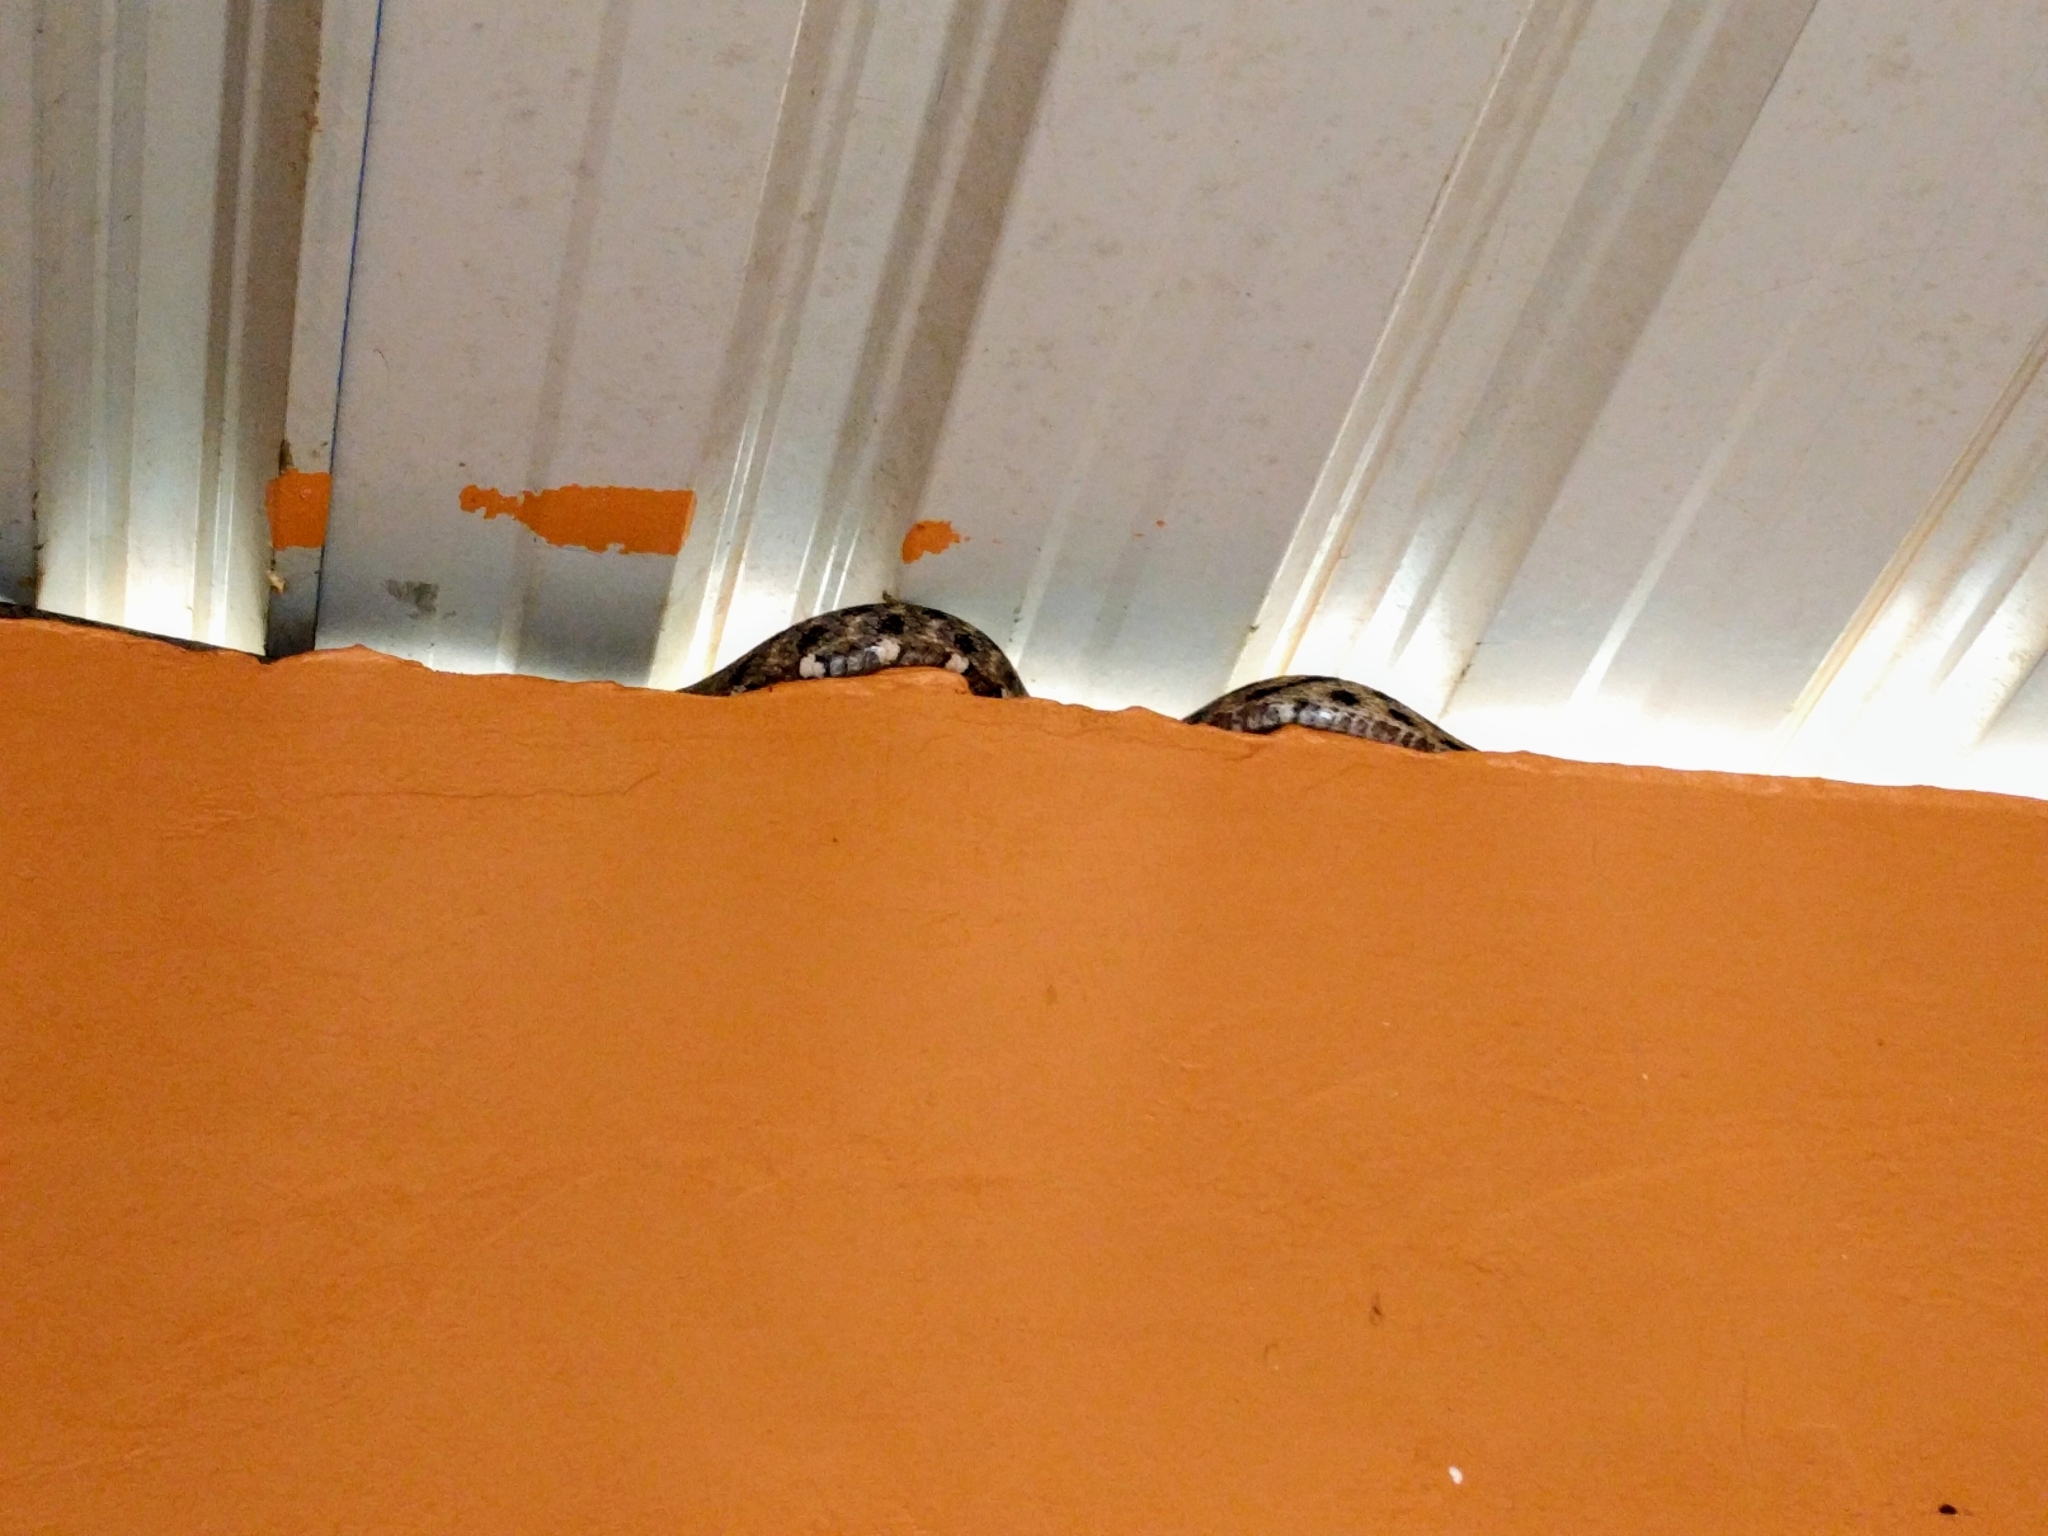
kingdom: Animalia
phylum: Chordata
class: Squamata
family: Colubridae
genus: Boiga
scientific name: Boiga siamensis
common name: Eyed cat snake
